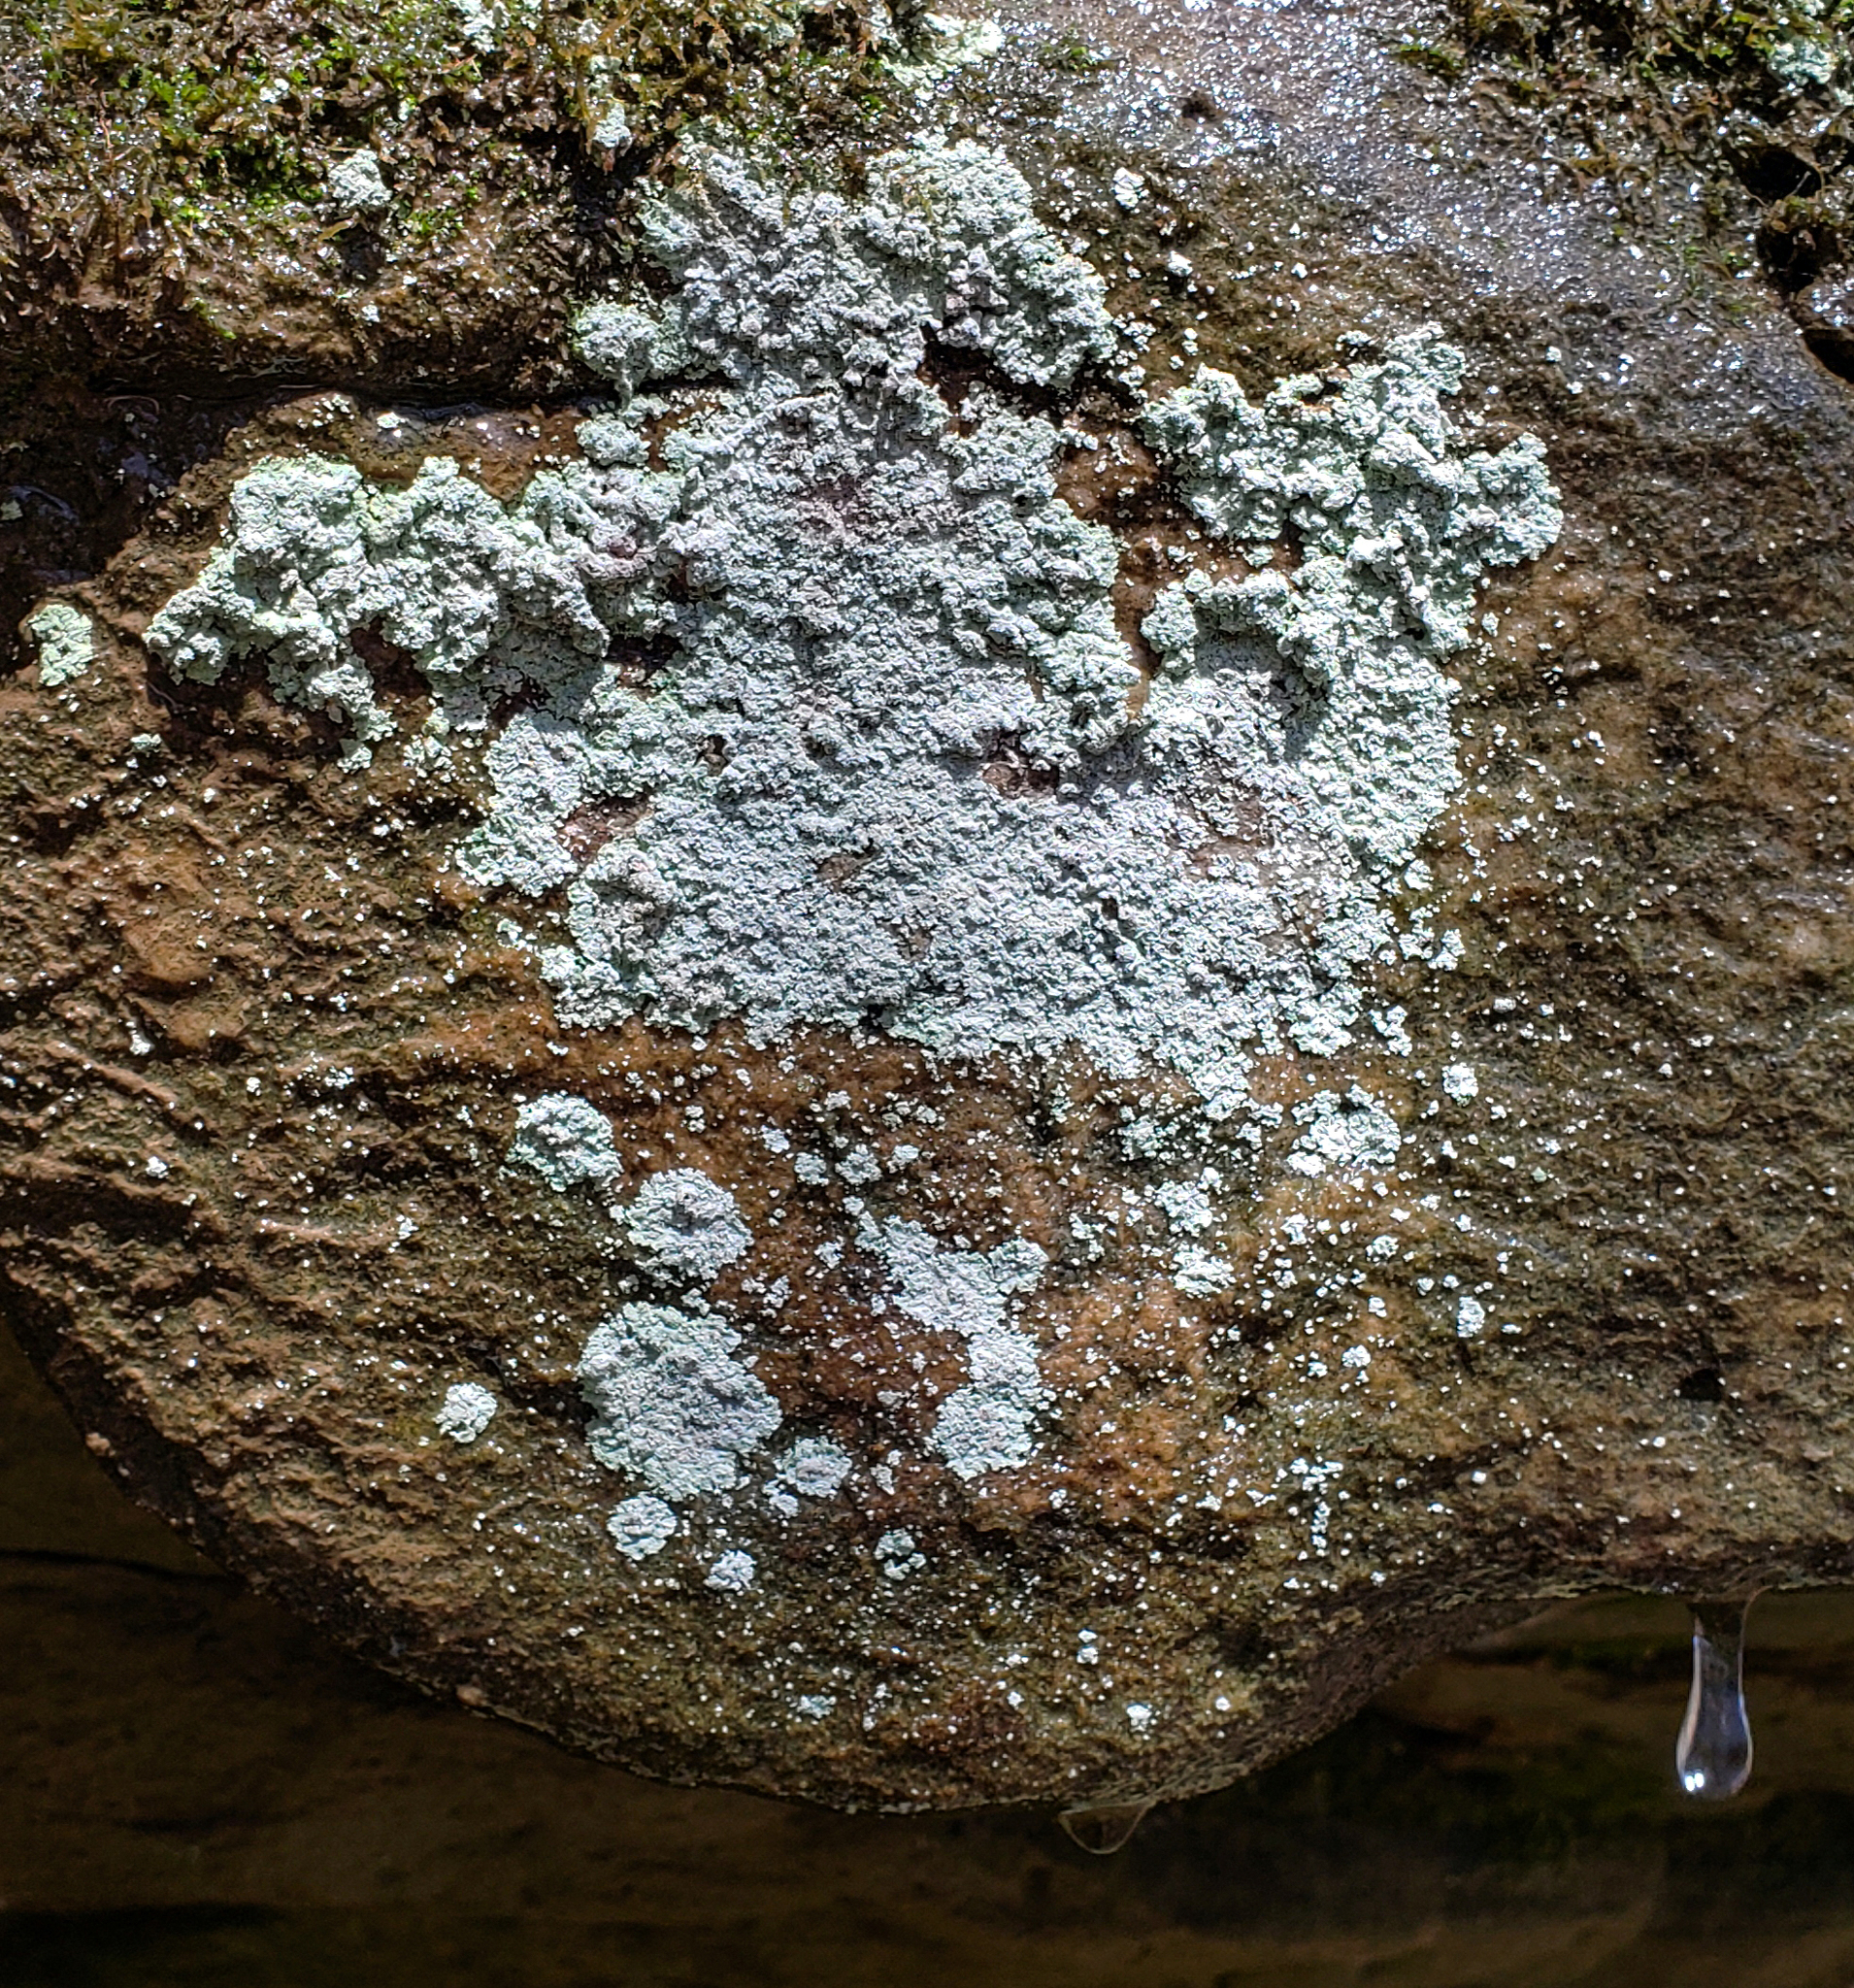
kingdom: Fungi
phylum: Ascomycota
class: Lecanoromycetes
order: Lecanorales
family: Stereocaulaceae
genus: Lepraria
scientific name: Lepraria lobificans
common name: Fluffy dust lichen
